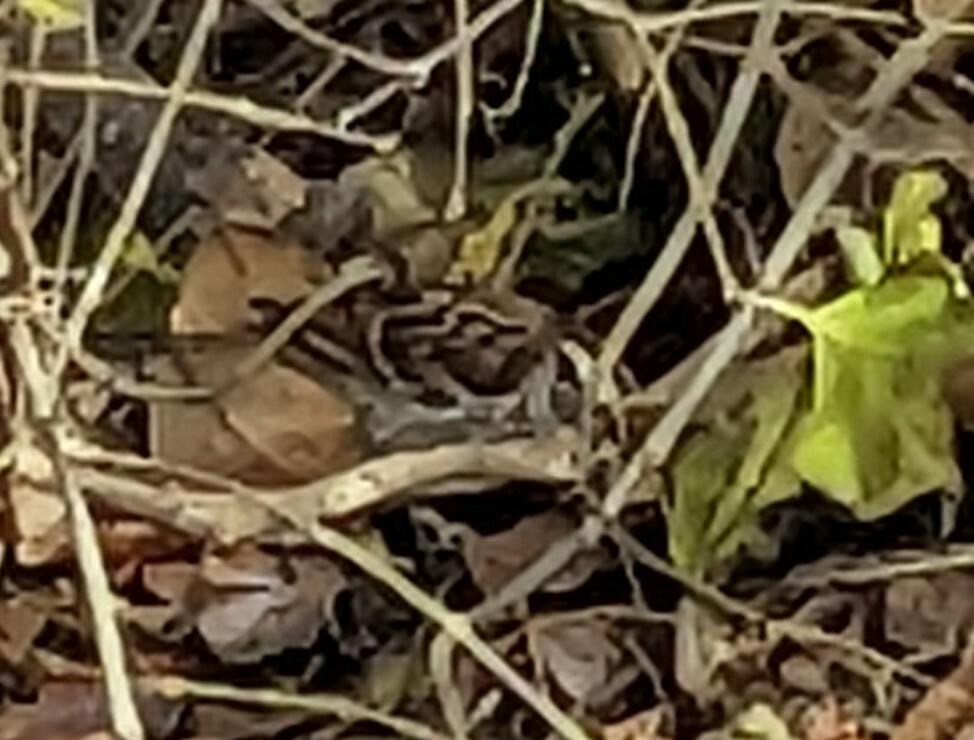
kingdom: Animalia
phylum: Chordata
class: Aves
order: Passeriformes
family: Passerellidae
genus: Zonotrichia
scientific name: Zonotrichia albicollis
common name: White-throated sparrow
